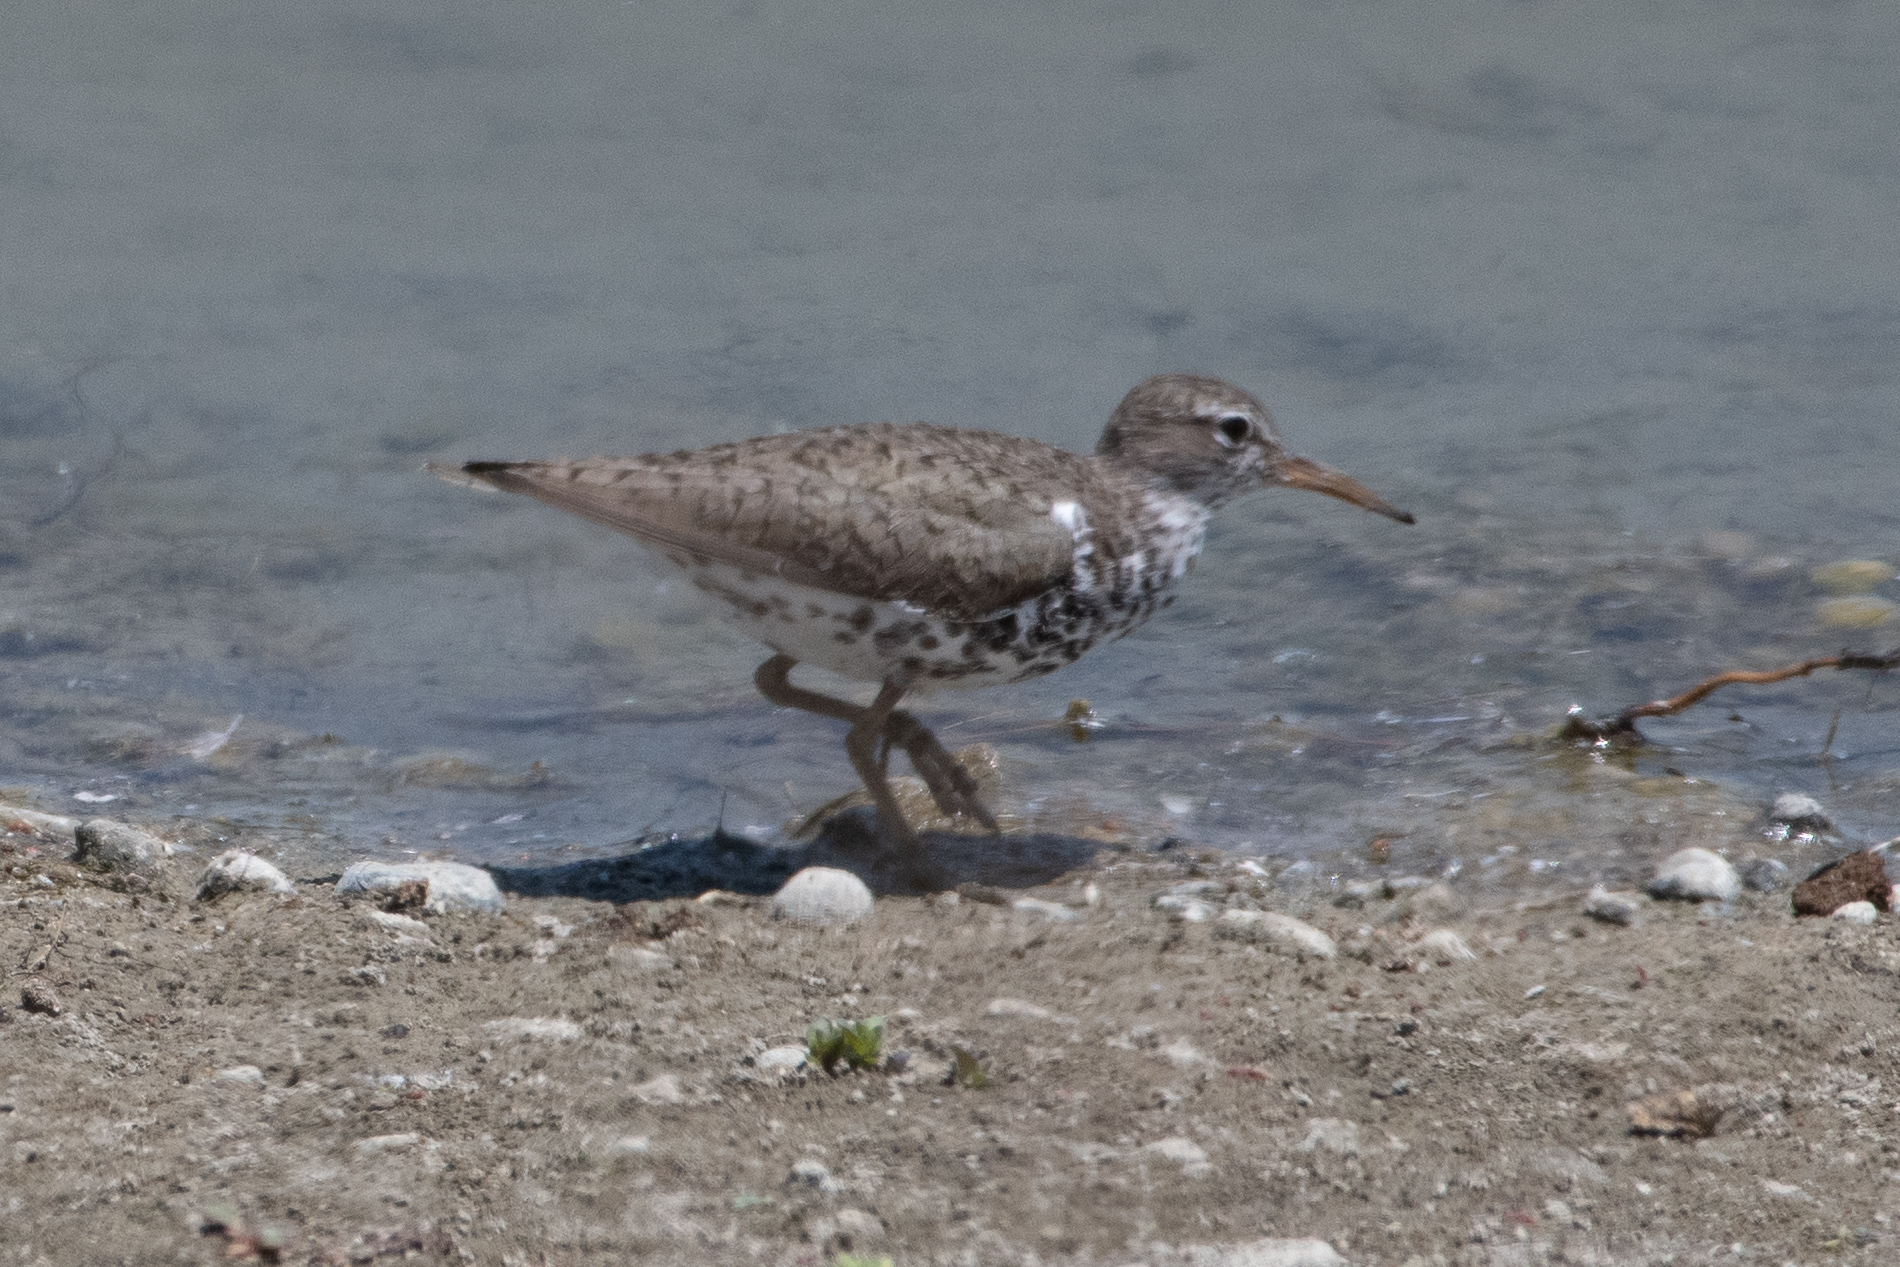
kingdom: Animalia
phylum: Chordata
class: Aves
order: Charadriiformes
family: Scolopacidae
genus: Actitis
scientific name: Actitis macularius
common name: Spotted sandpiper
